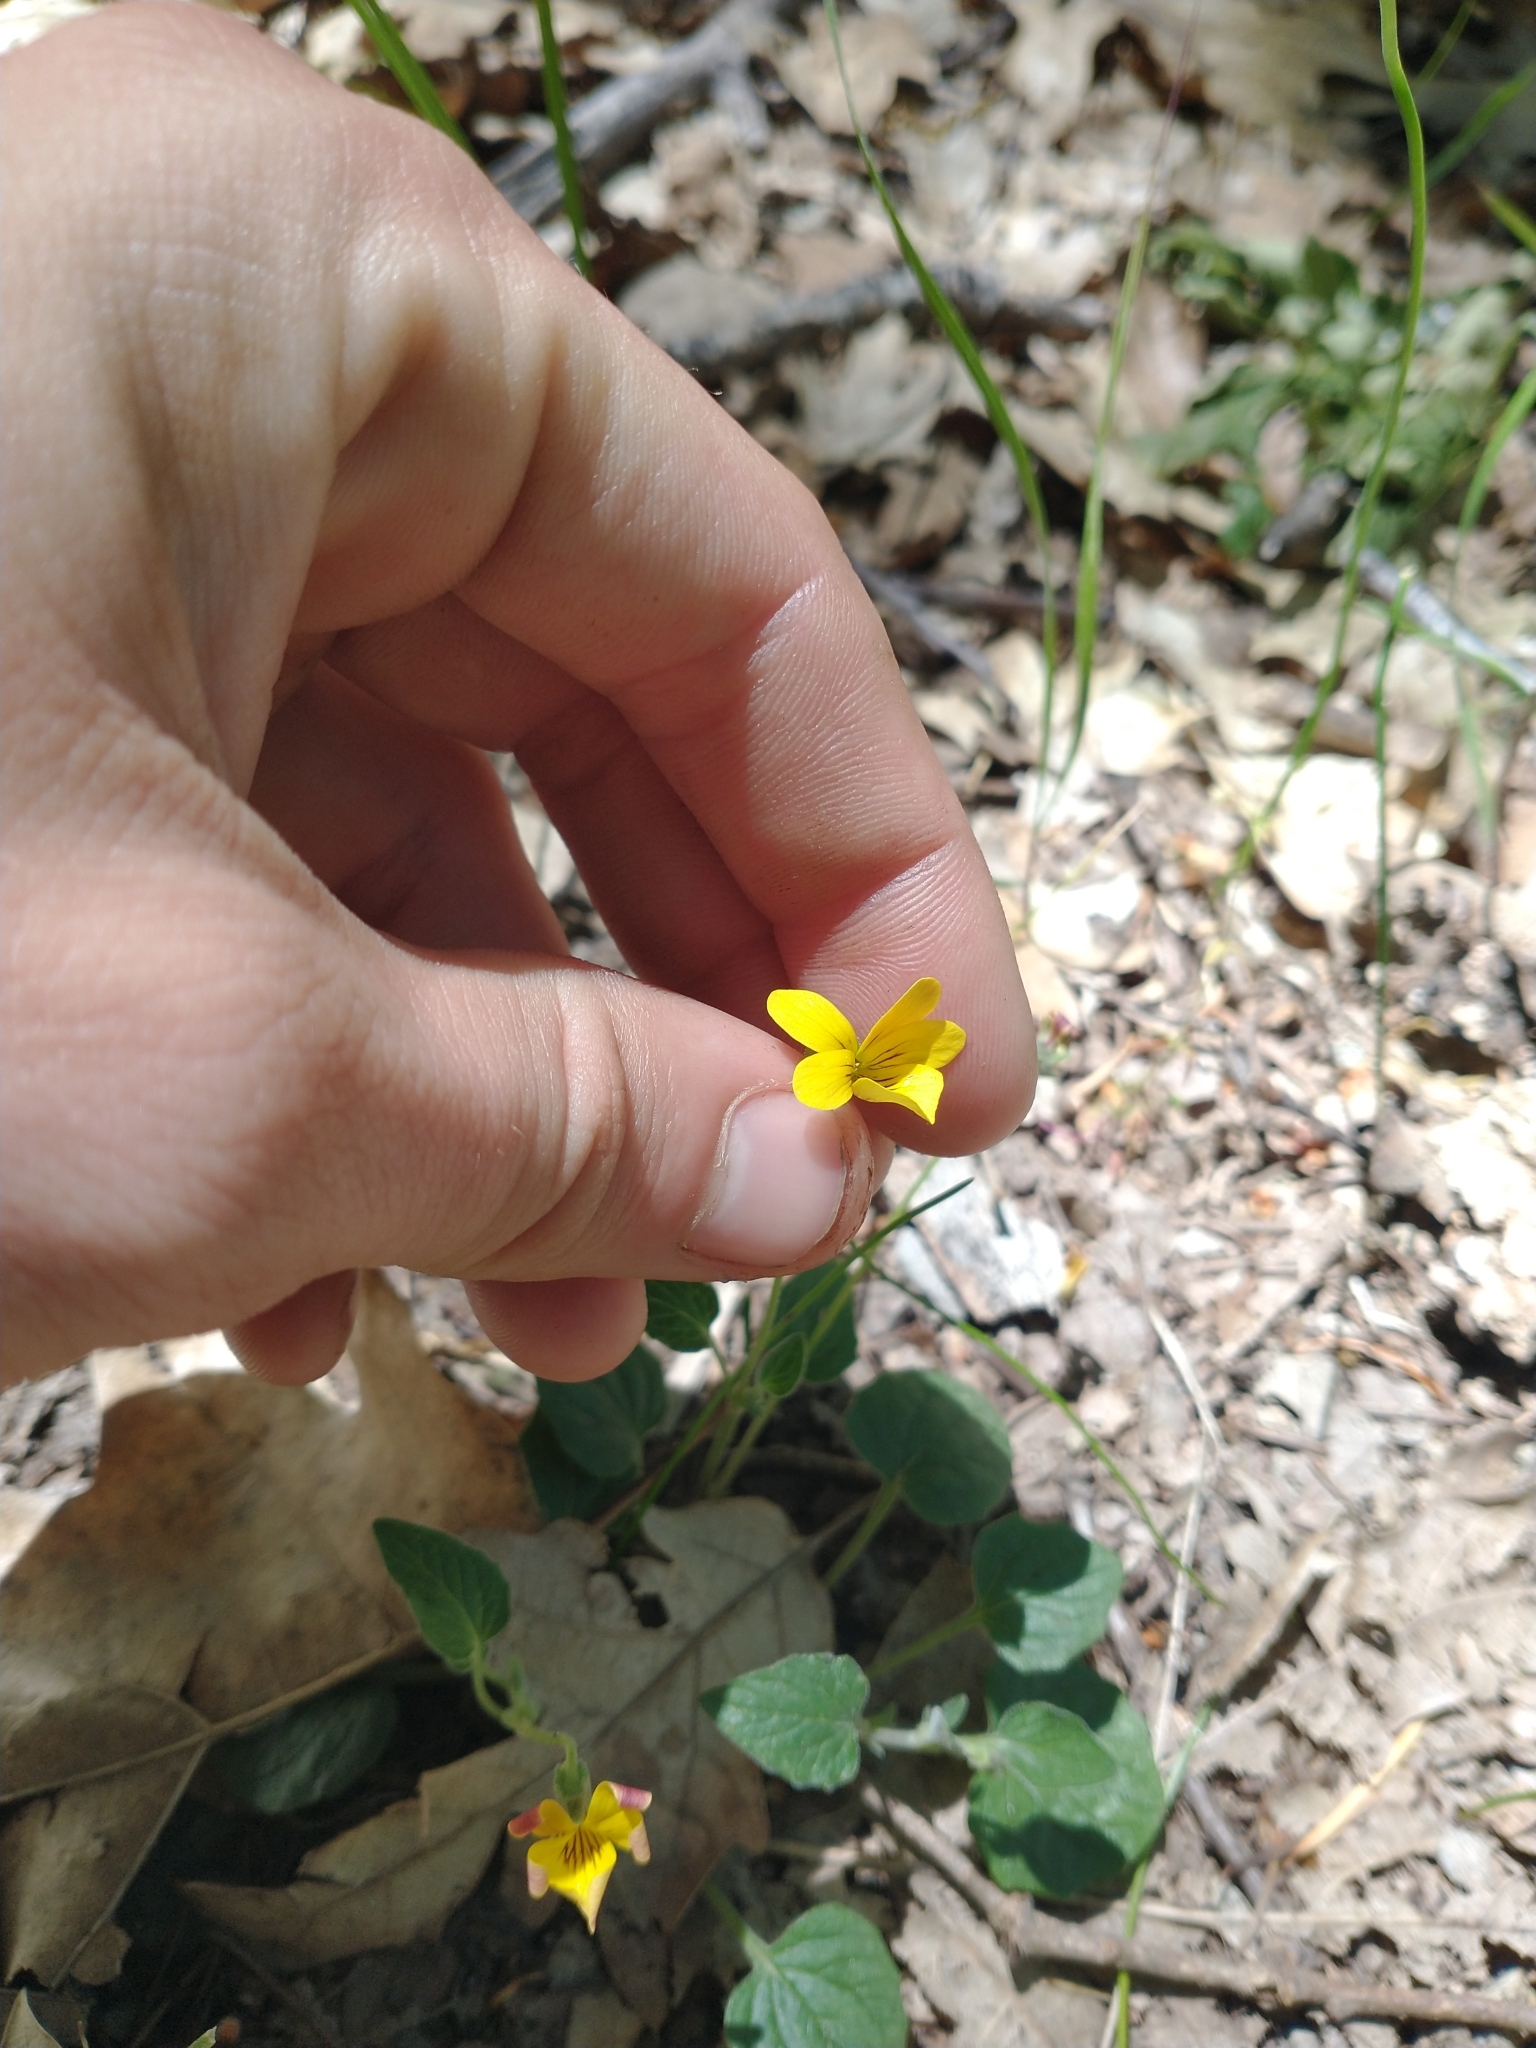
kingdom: Plantae
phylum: Tracheophyta
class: Magnoliopsida
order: Malpighiales
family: Violaceae
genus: Viola
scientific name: Viola purpurea
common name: Pine violet
